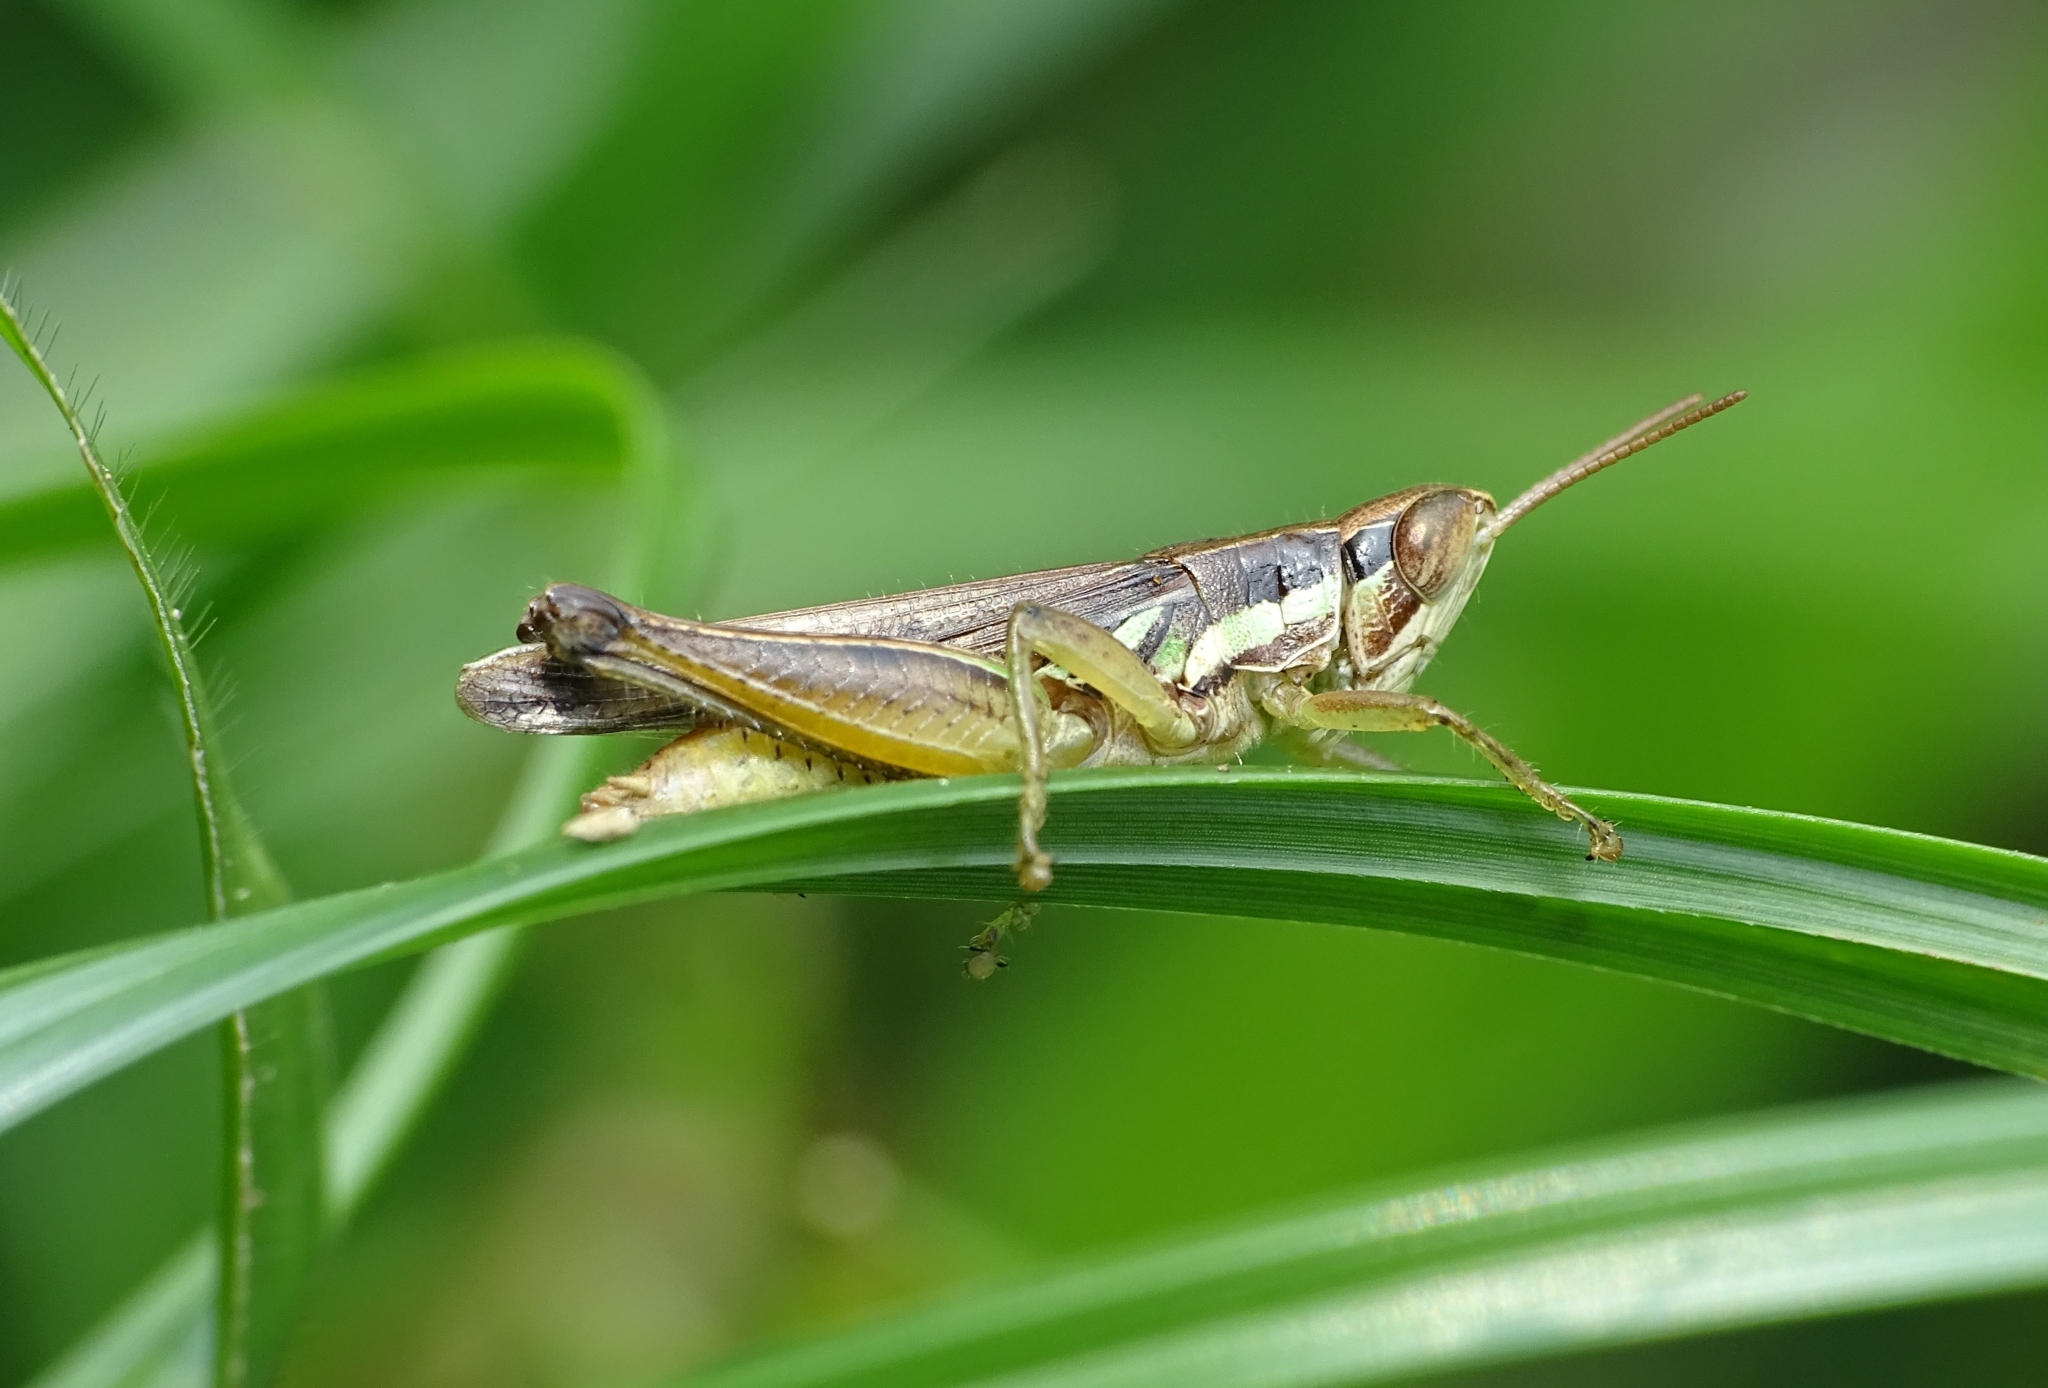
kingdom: Animalia
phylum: Arthropoda
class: Insecta
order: Orthoptera
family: Acrididae
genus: Spathosternum
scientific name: Spathosternum prasiniferum
